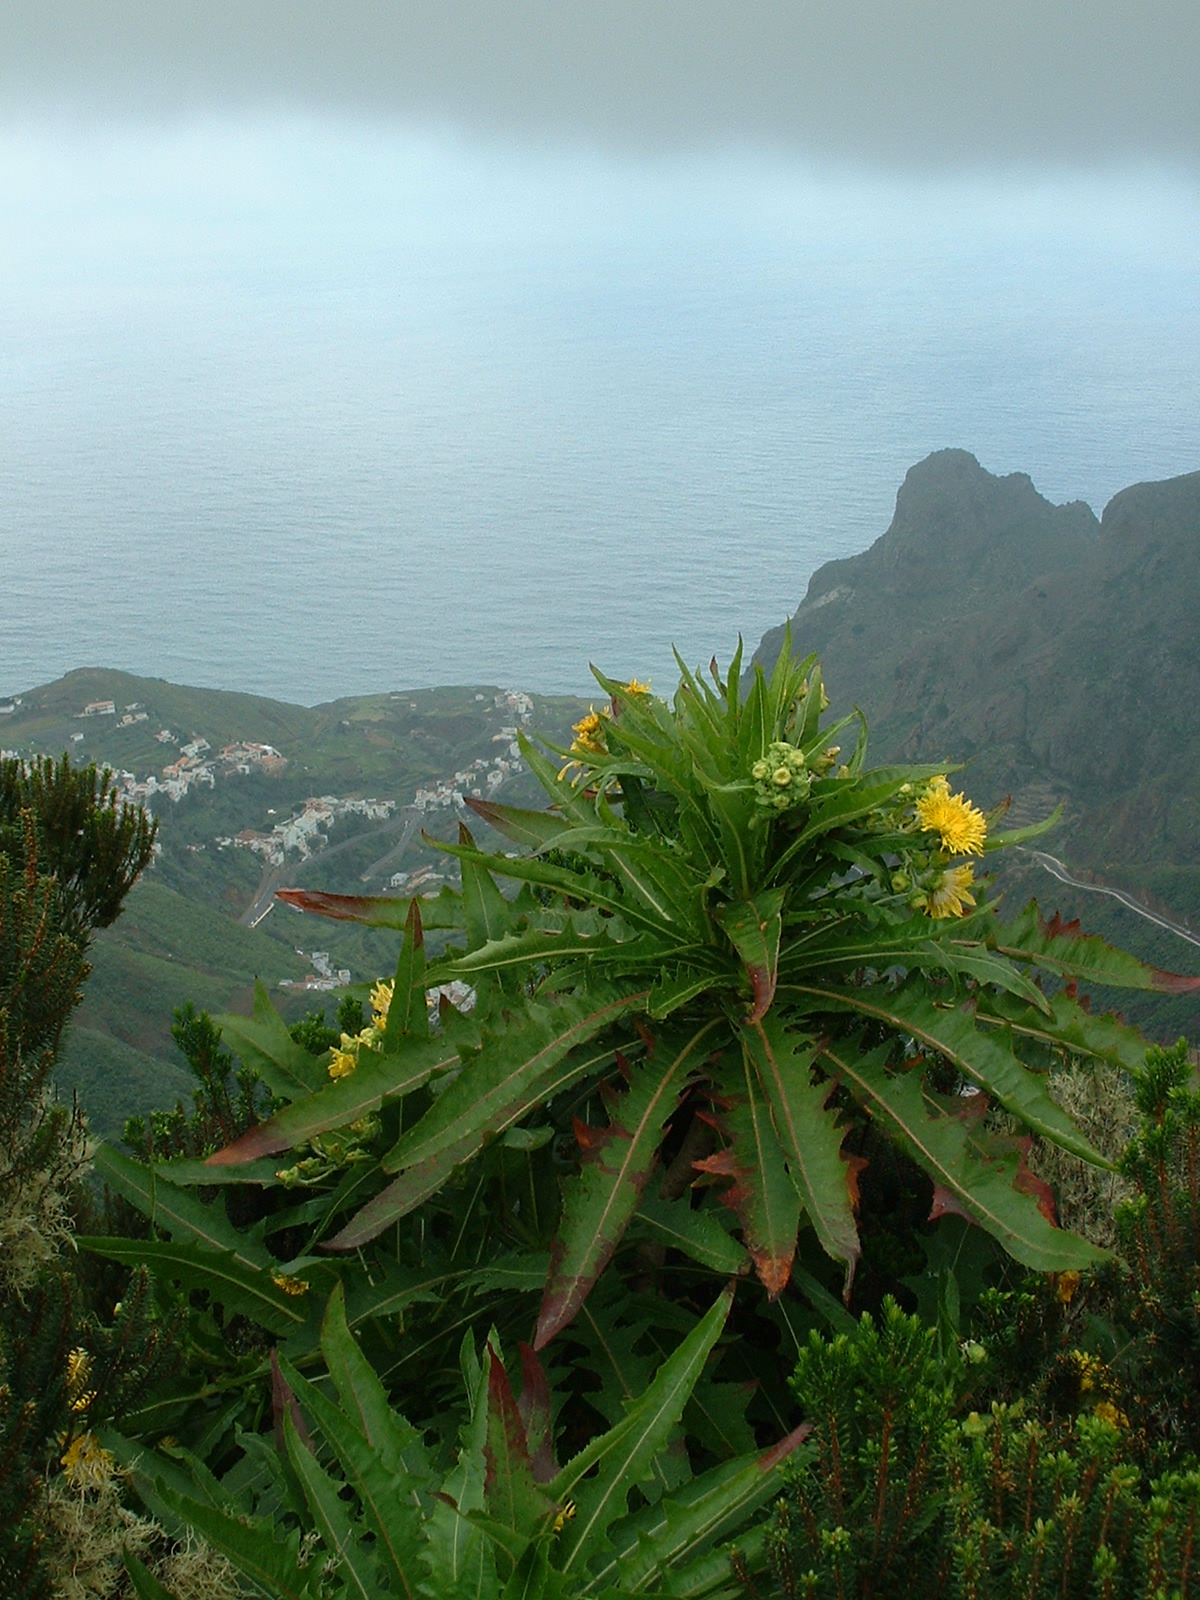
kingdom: Plantae
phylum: Tracheophyta
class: Magnoliopsida
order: Asterales
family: Asteraceae
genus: Sonchus
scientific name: Sonchus congestus
